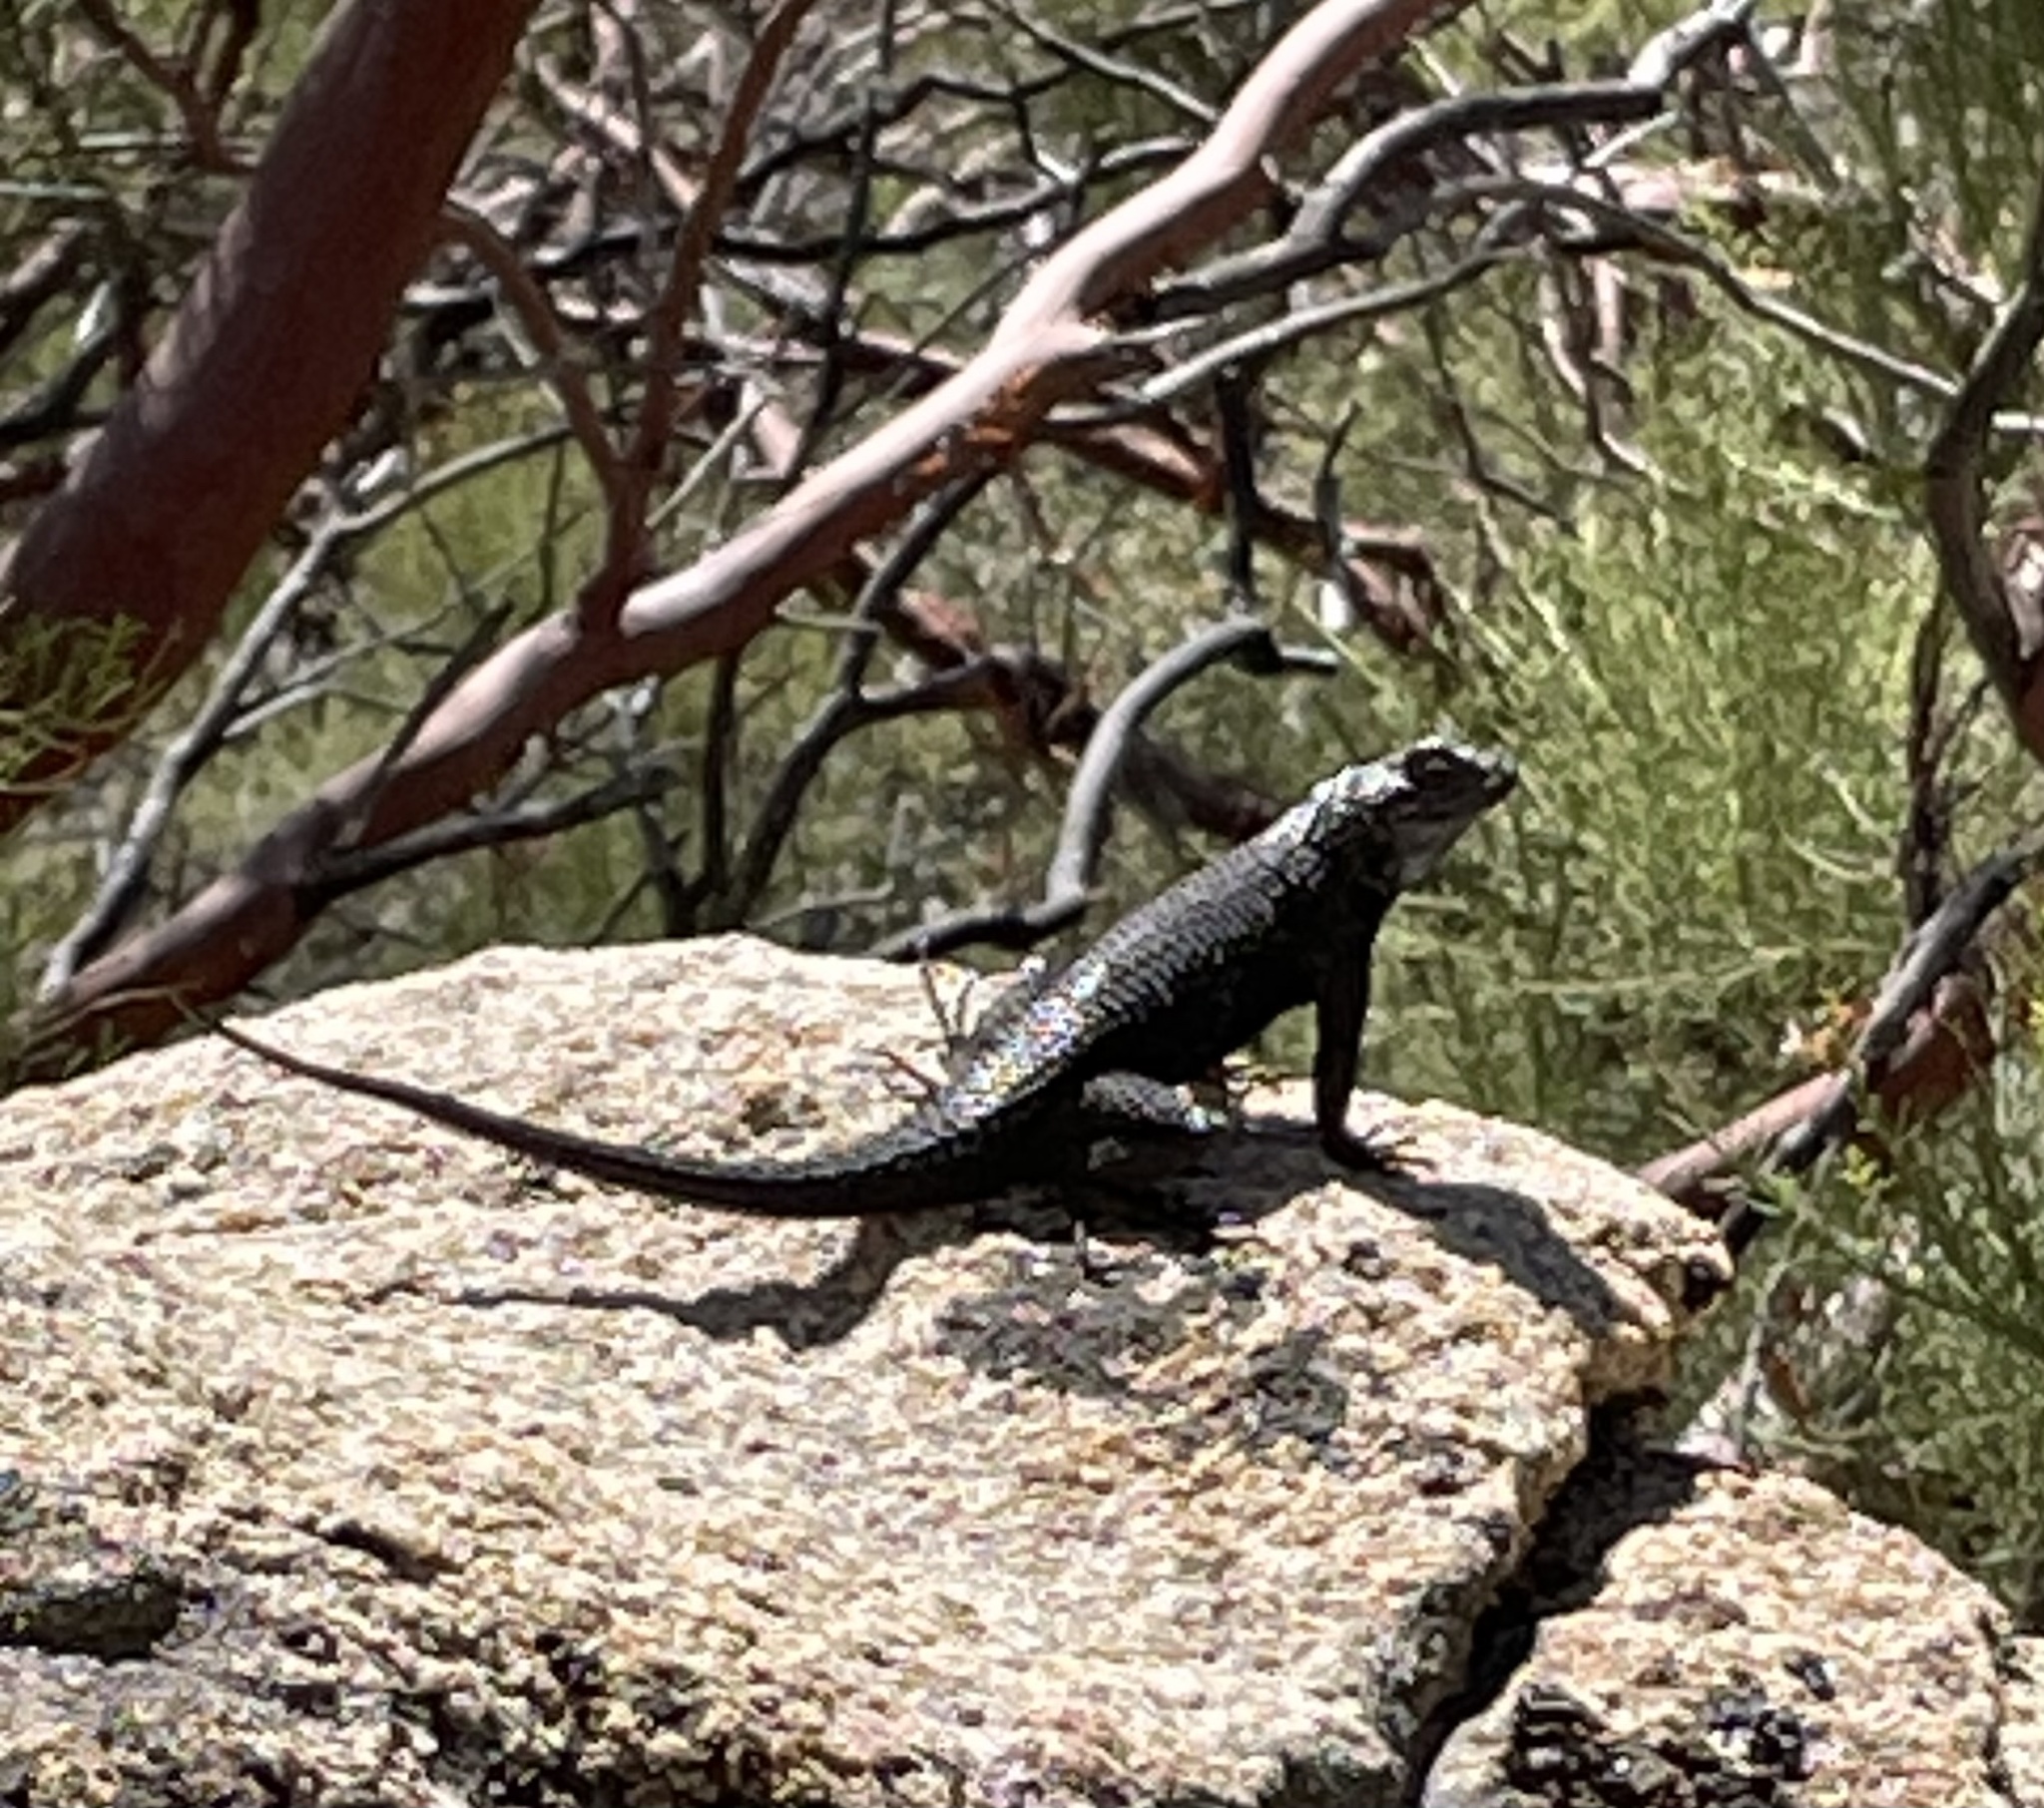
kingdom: Animalia
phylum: Chordata
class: Squamata
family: Phrynosomatidae
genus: Sceloporus
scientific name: Sceloporus occidentalis
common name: Western fence lizard
